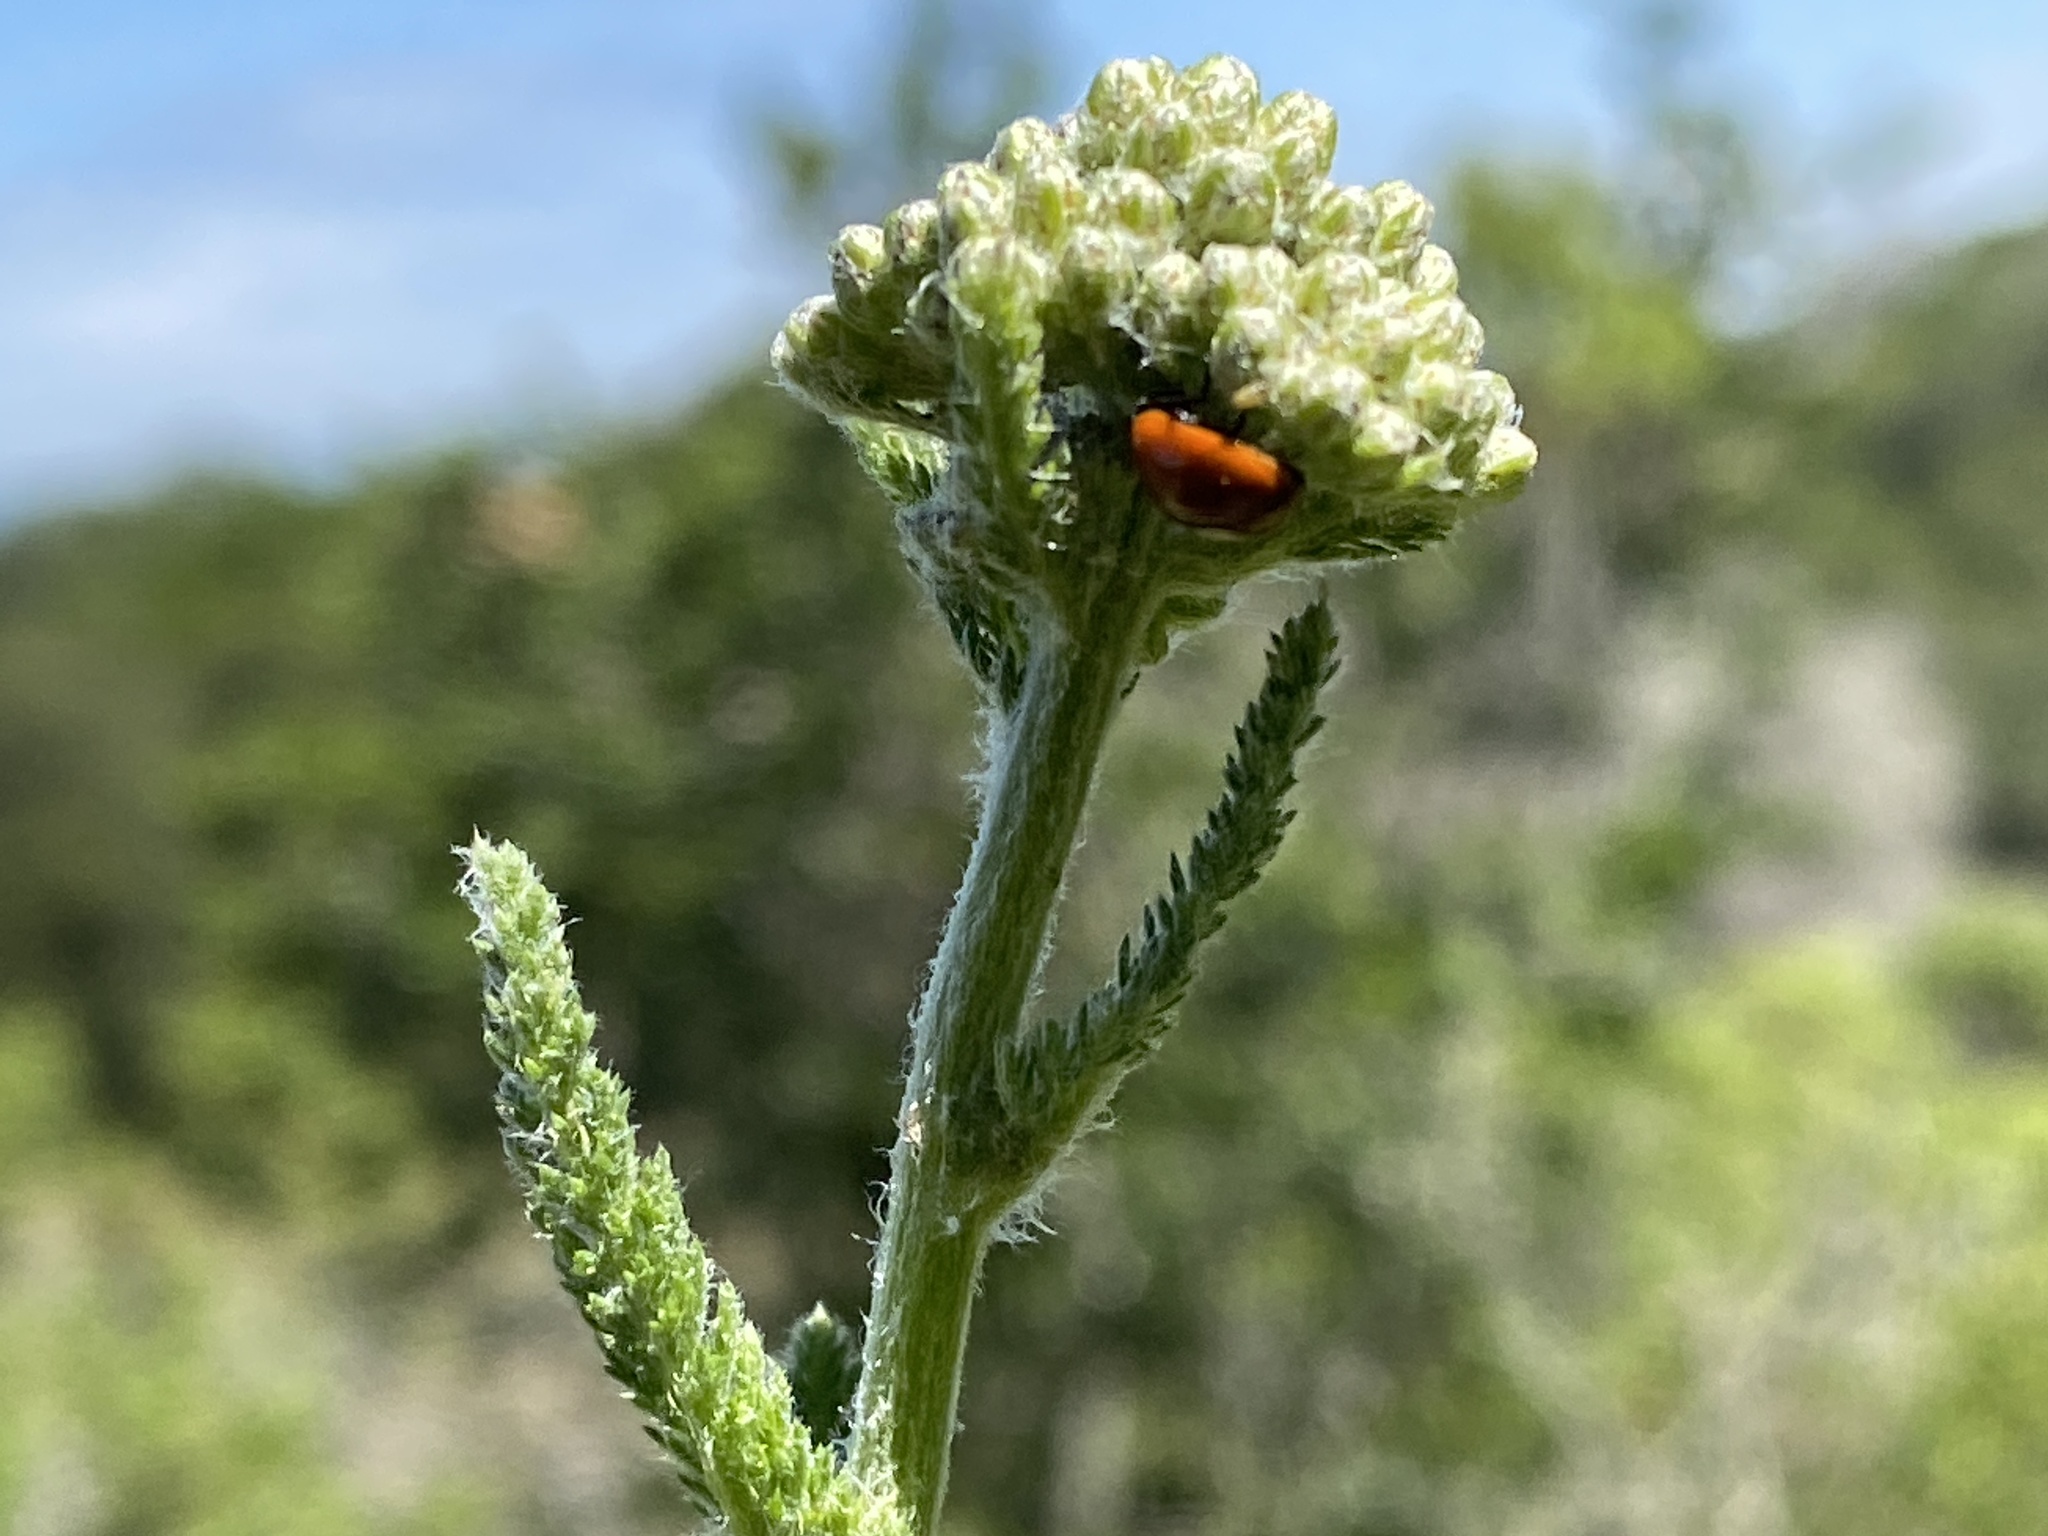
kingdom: Plantae
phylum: Tracheophyta
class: Magnoliopsida
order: Asterales
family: Asteraceae
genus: Achillea
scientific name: Achillea millefolium
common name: Yarrow
